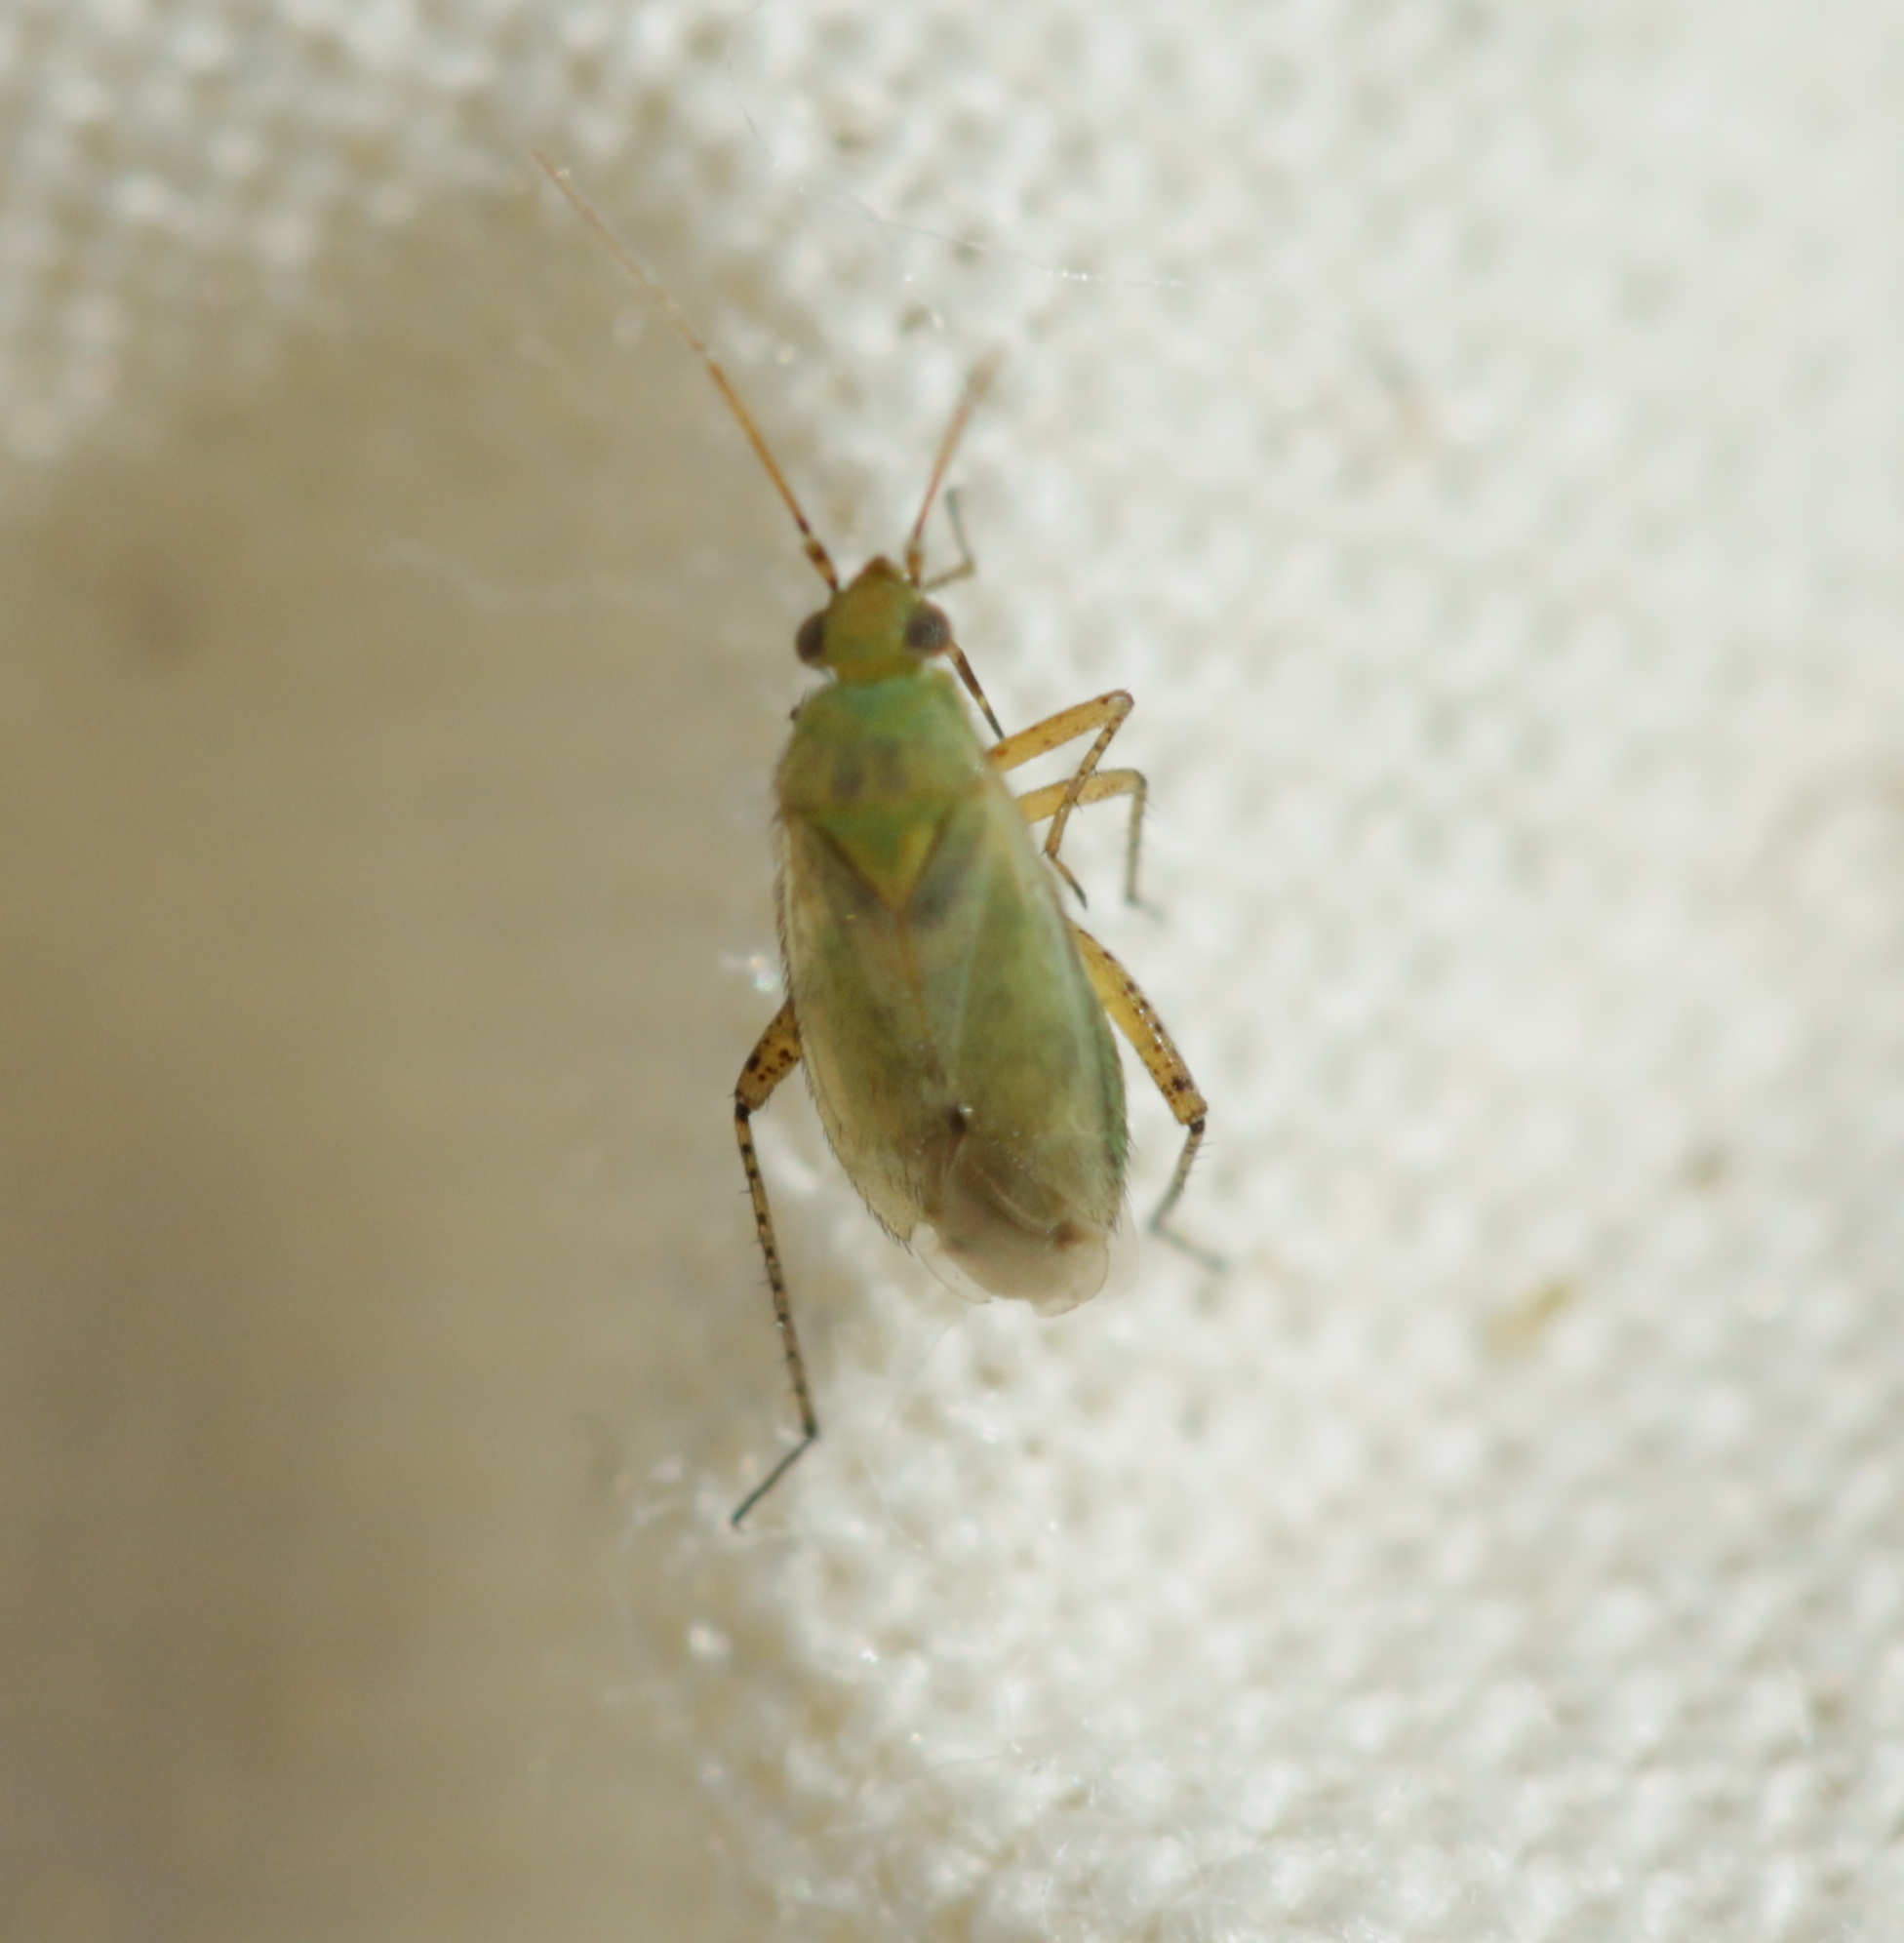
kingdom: Animalia
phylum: Arthropoda
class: Insecta
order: Hemiptera
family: Miridae
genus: Plagiognathus
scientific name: Plagiognathus chrysanthemi
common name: Plant bug
